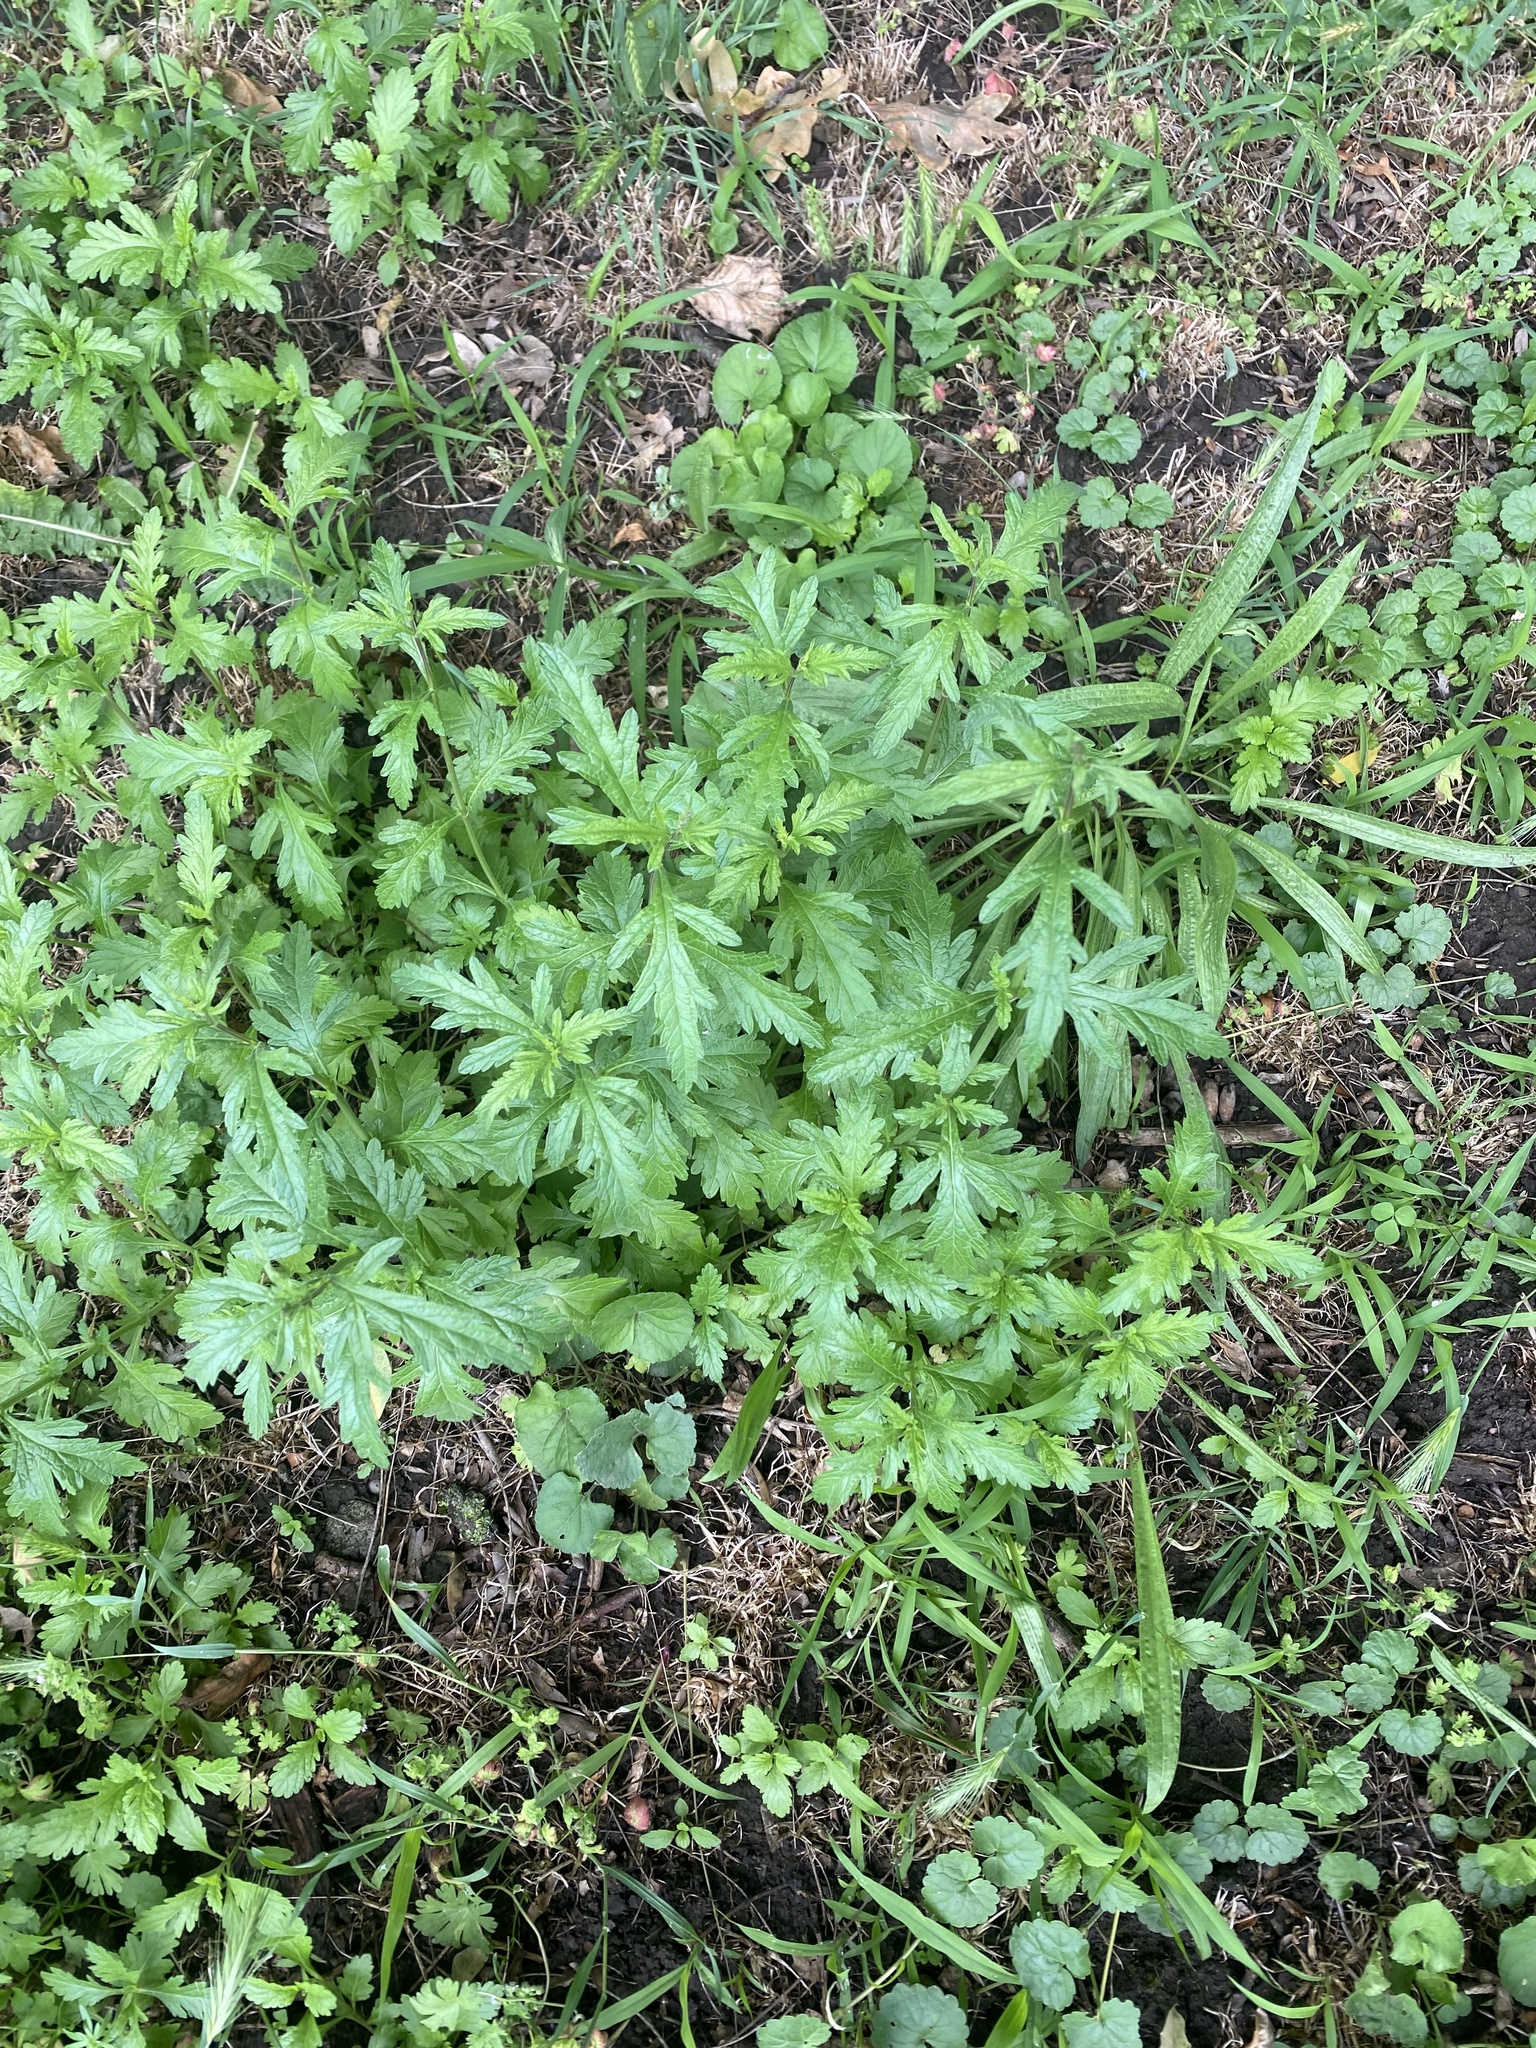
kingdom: Plantae
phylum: Tracheophyta
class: Magnoliopsida
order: Lamiales
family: Verbenaceae
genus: Verbena
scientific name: Verbena officinalis
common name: Vervain
